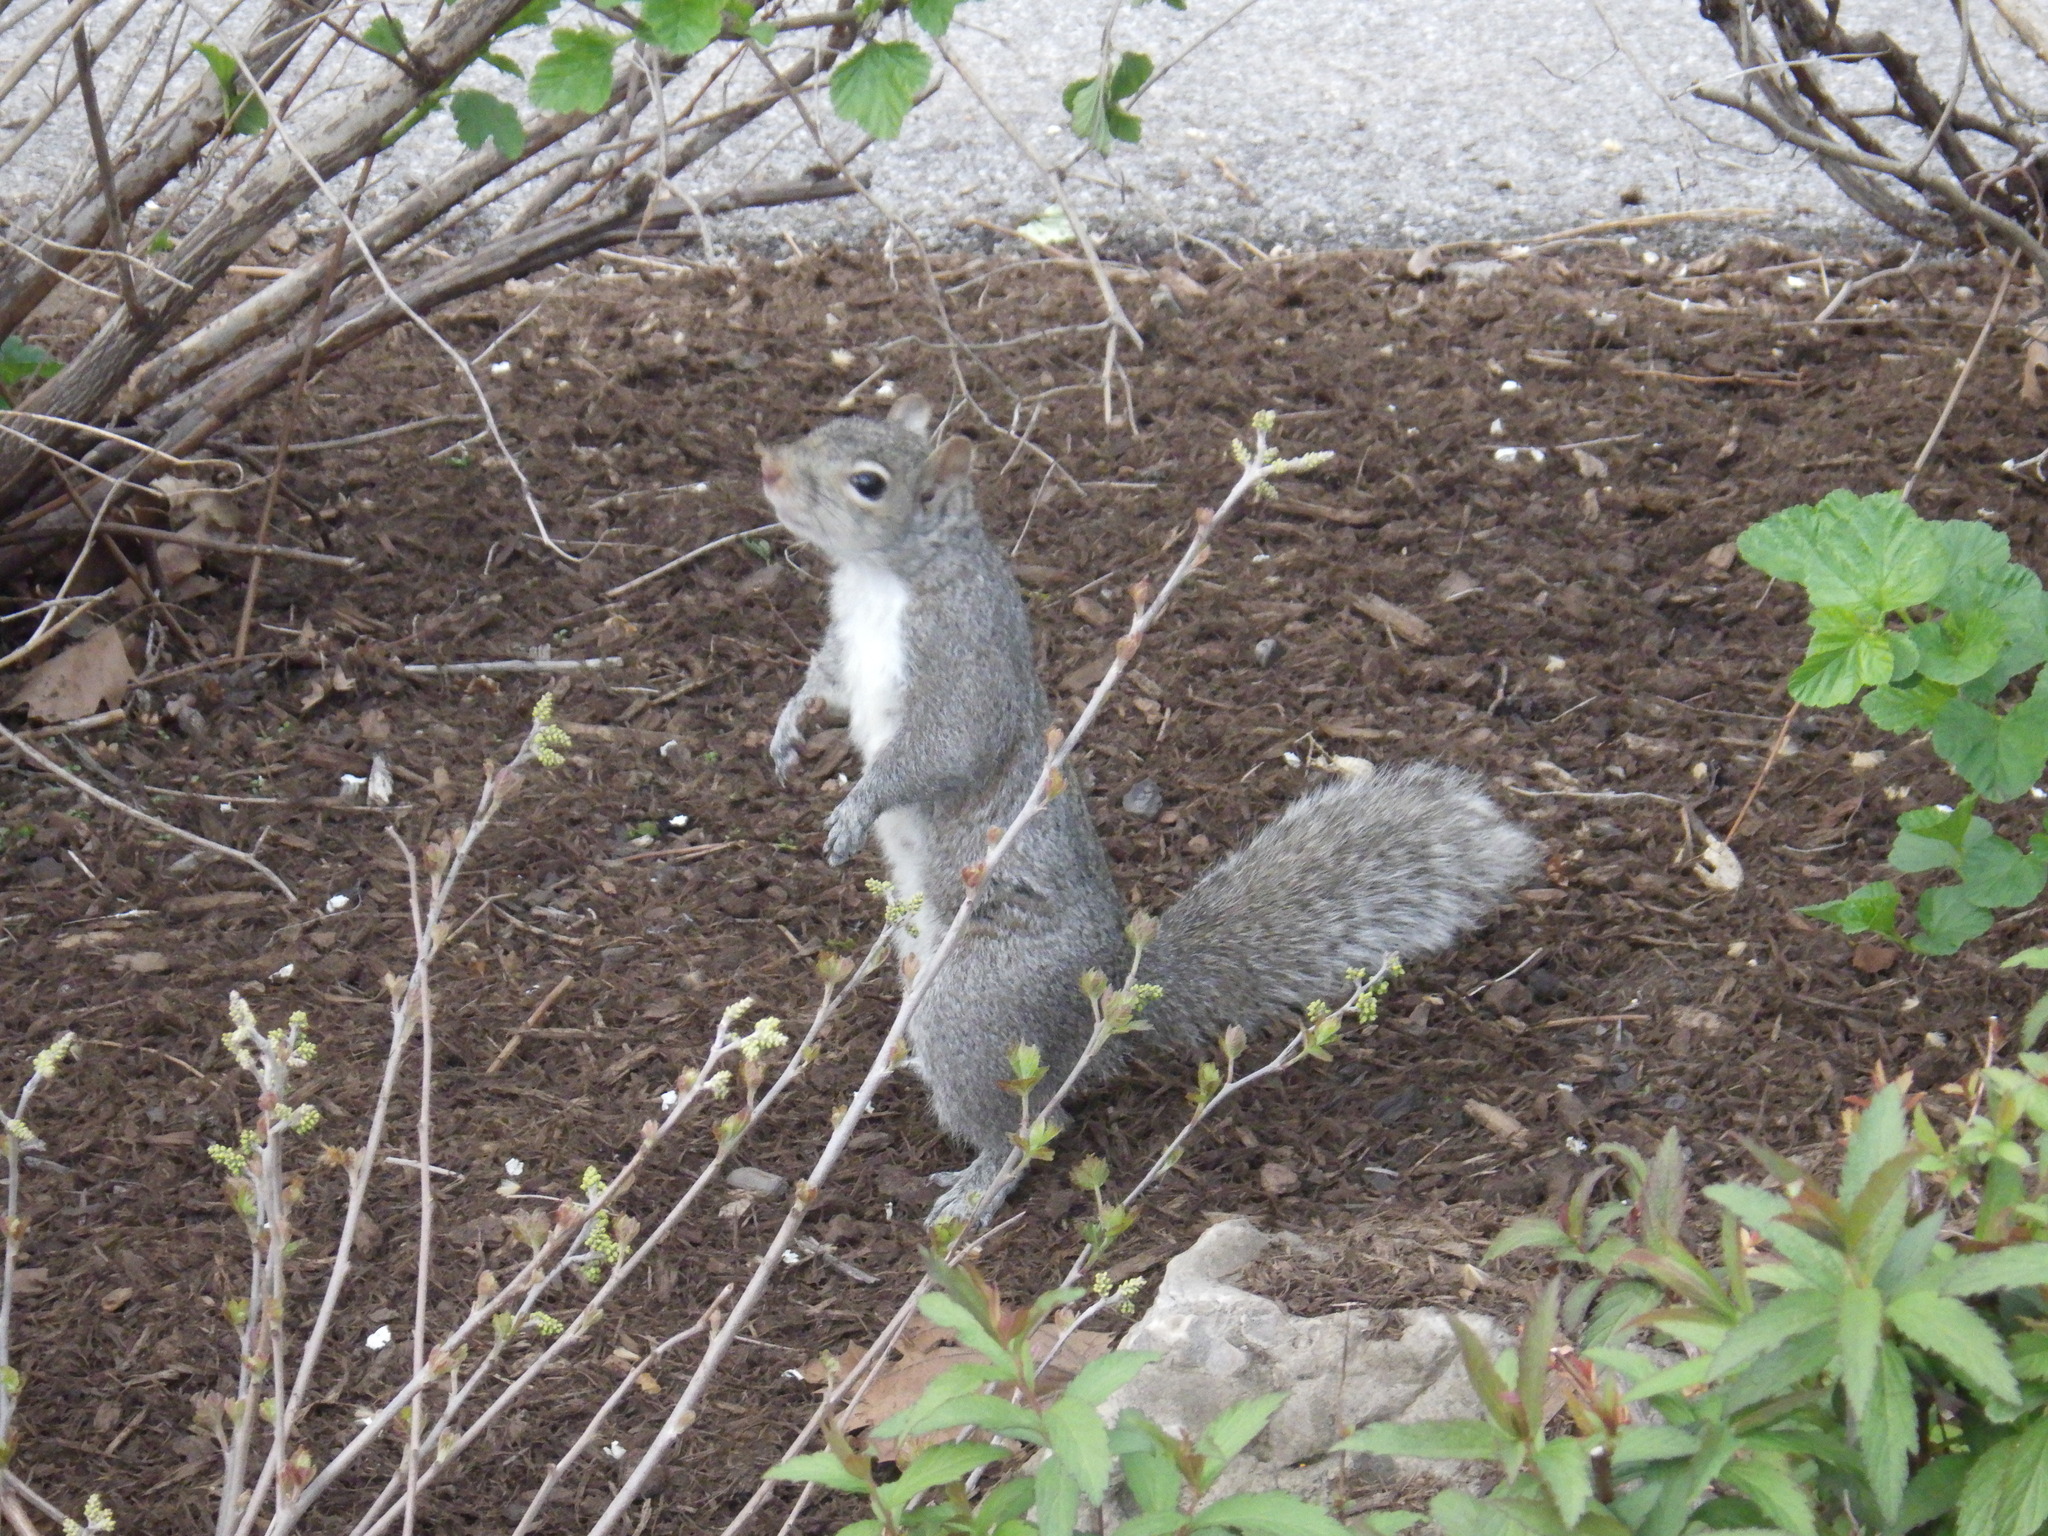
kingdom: Animalia
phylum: Chordata
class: Mammalia
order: Rodentia
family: Sciuridae
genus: Sciurus
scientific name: Sciurus carolinensis
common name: Eastern gray squirrel
